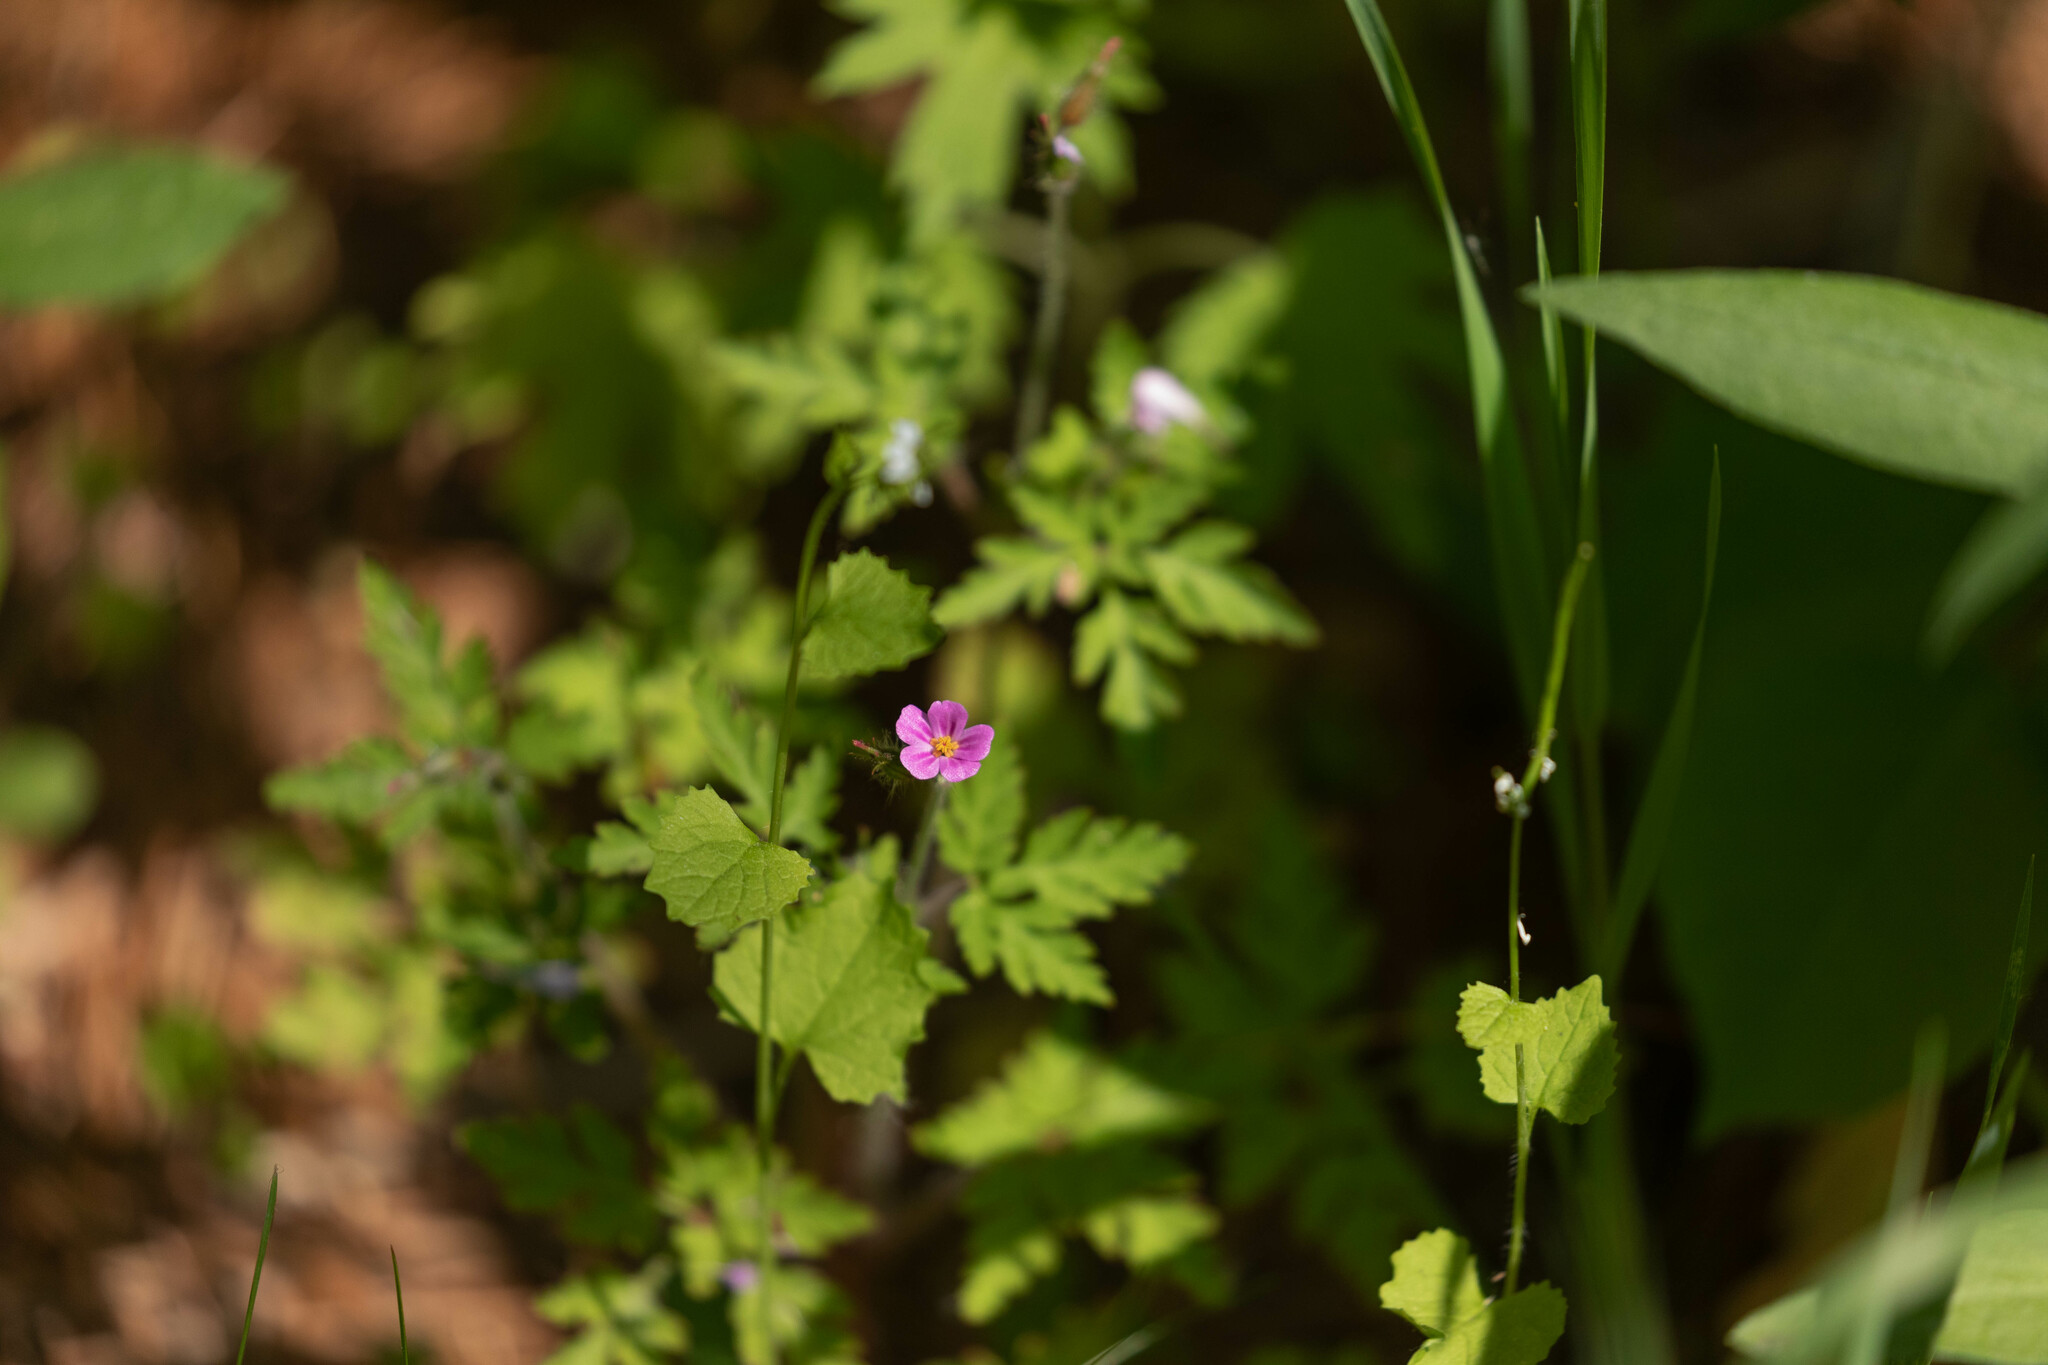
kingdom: Plantae
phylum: Tracheophyta
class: Magnoliopsida
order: Geraniales
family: Geraniaceae
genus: Geranium
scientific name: Geranium robertianum
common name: Herb-robert
